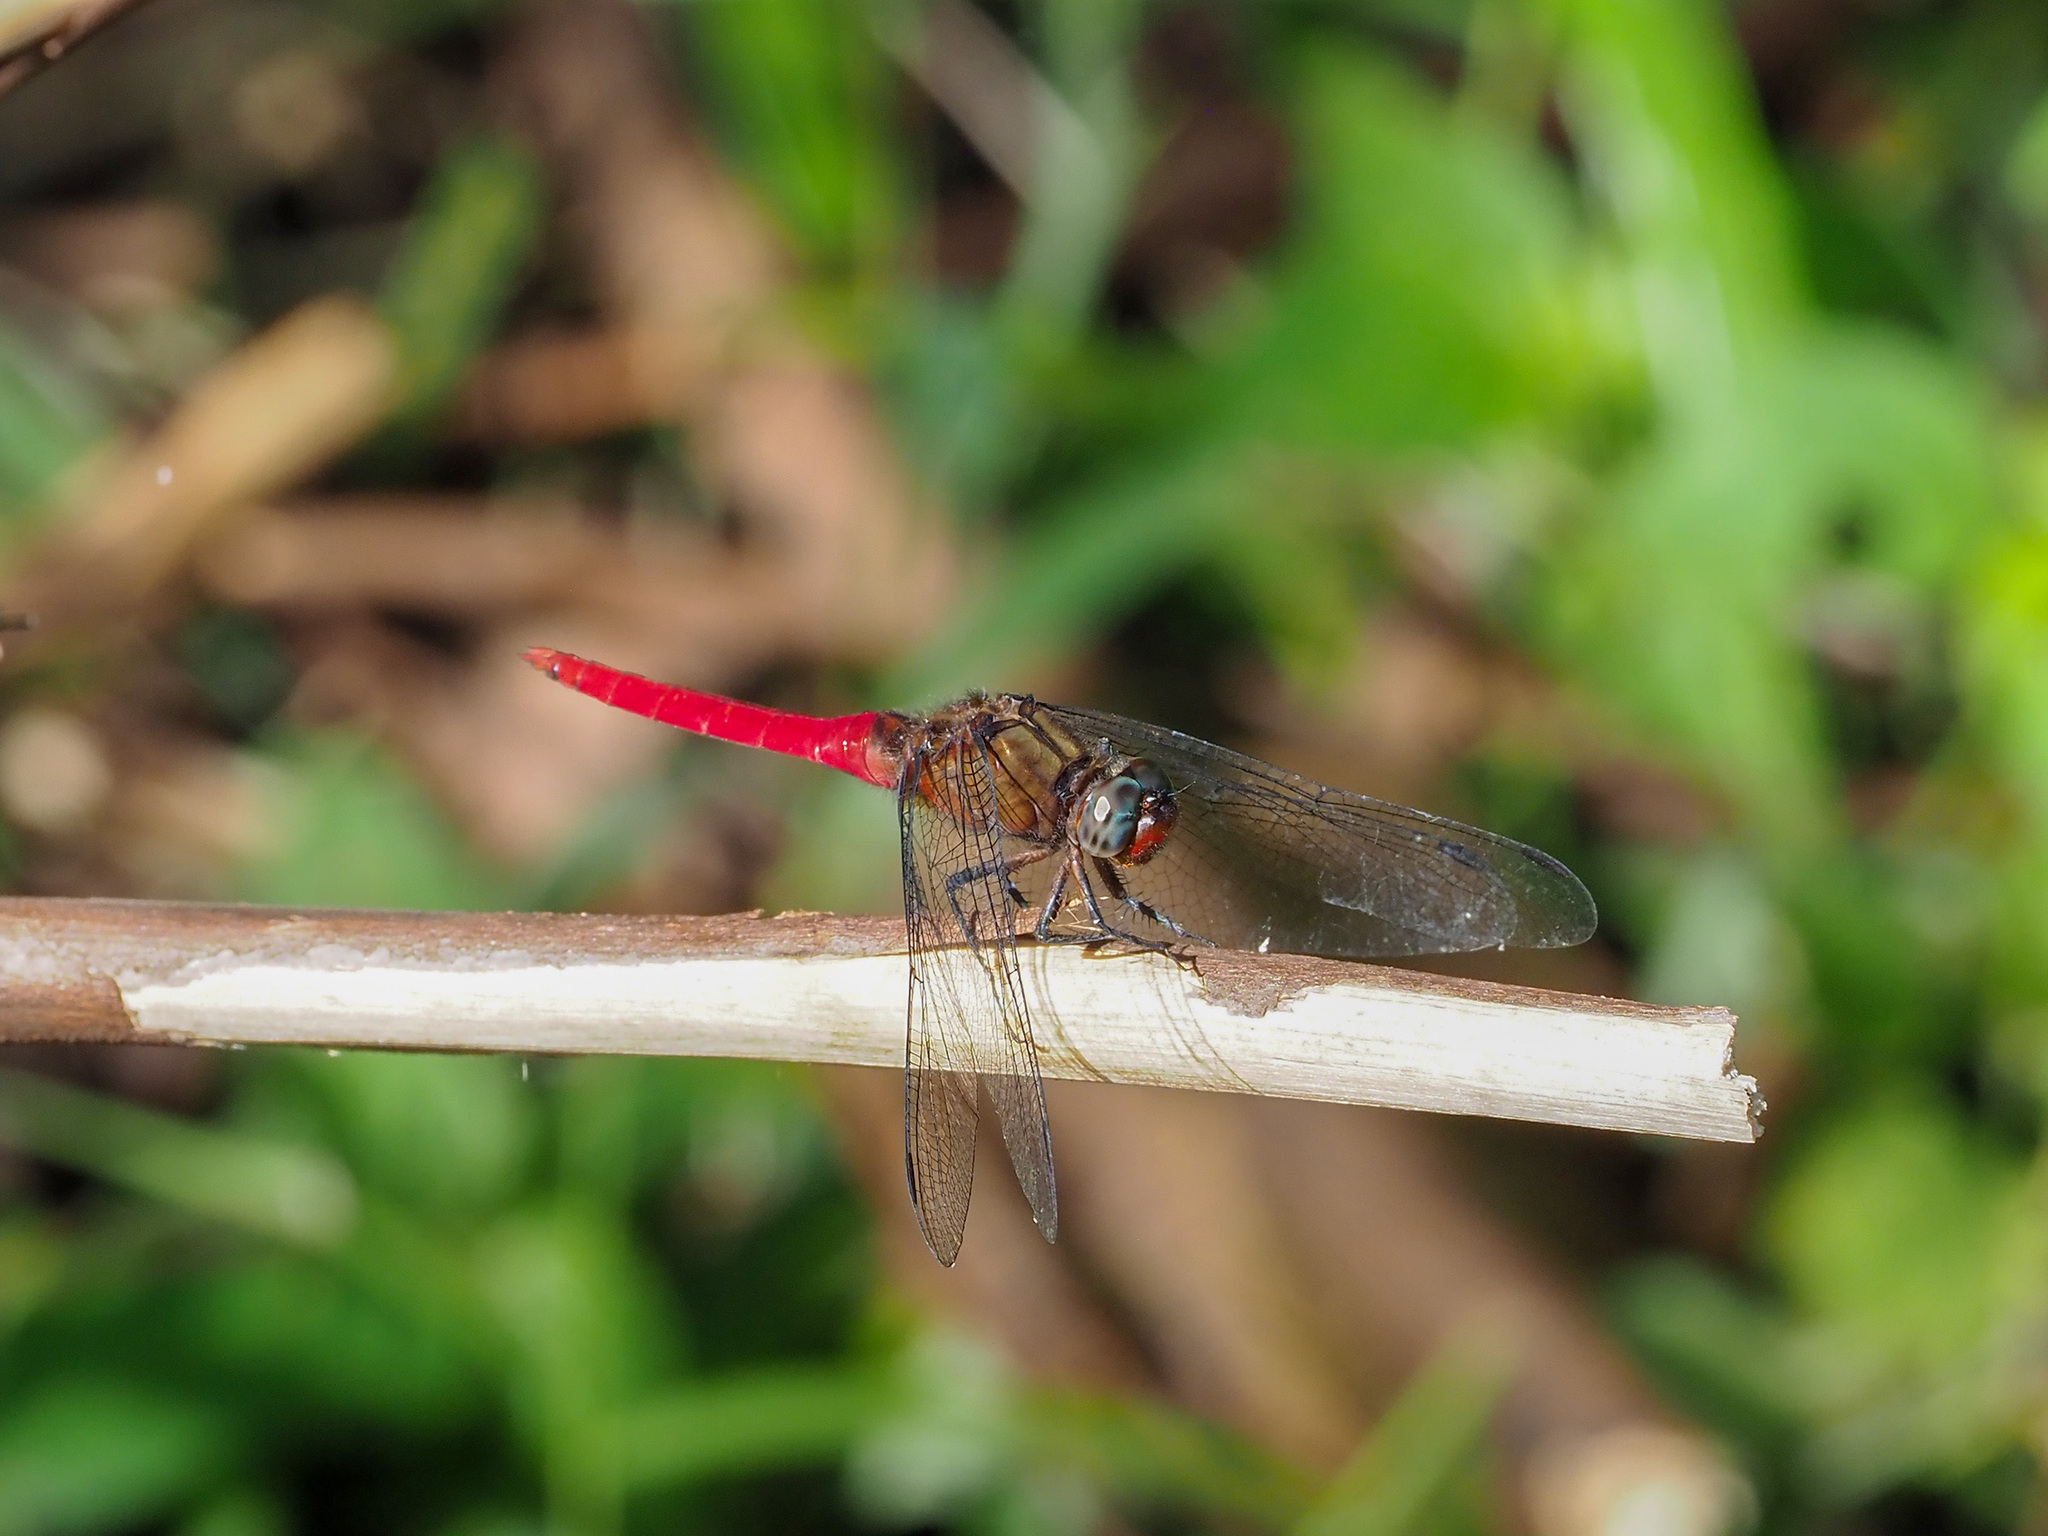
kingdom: Animalia
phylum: Arthropoda
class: Insecta
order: Odonata
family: Libellulidae
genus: Orthetrum
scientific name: Orthetrum chrysis
